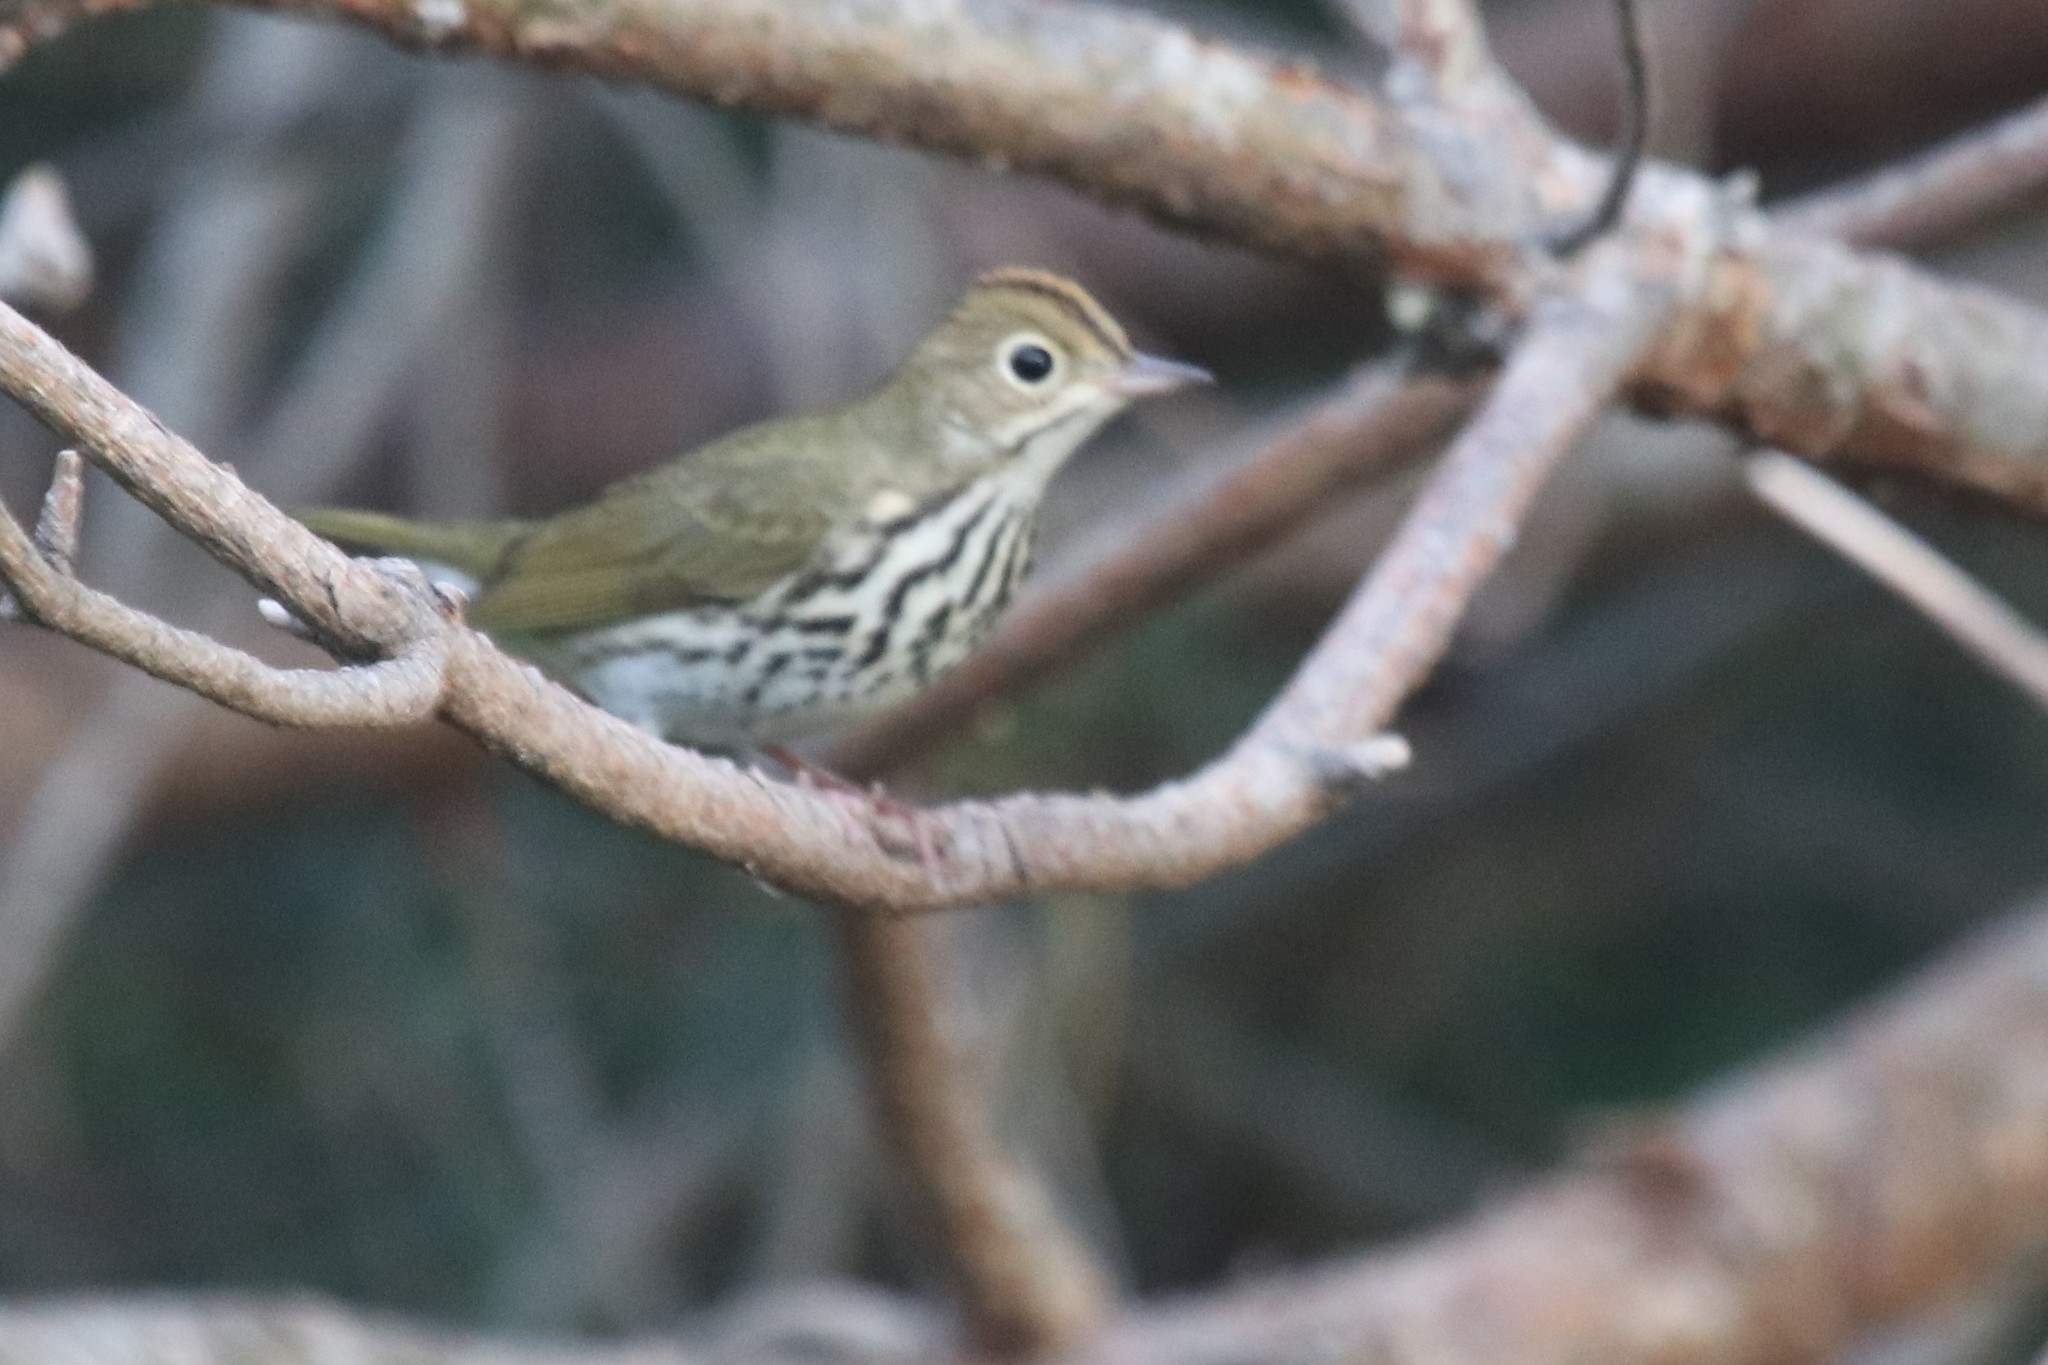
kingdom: Animalia
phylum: Chordata
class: Aves
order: Passeriformes
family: Parulidae
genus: Seiurus
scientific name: Seiurus aurocapilla
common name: Ovenbird
